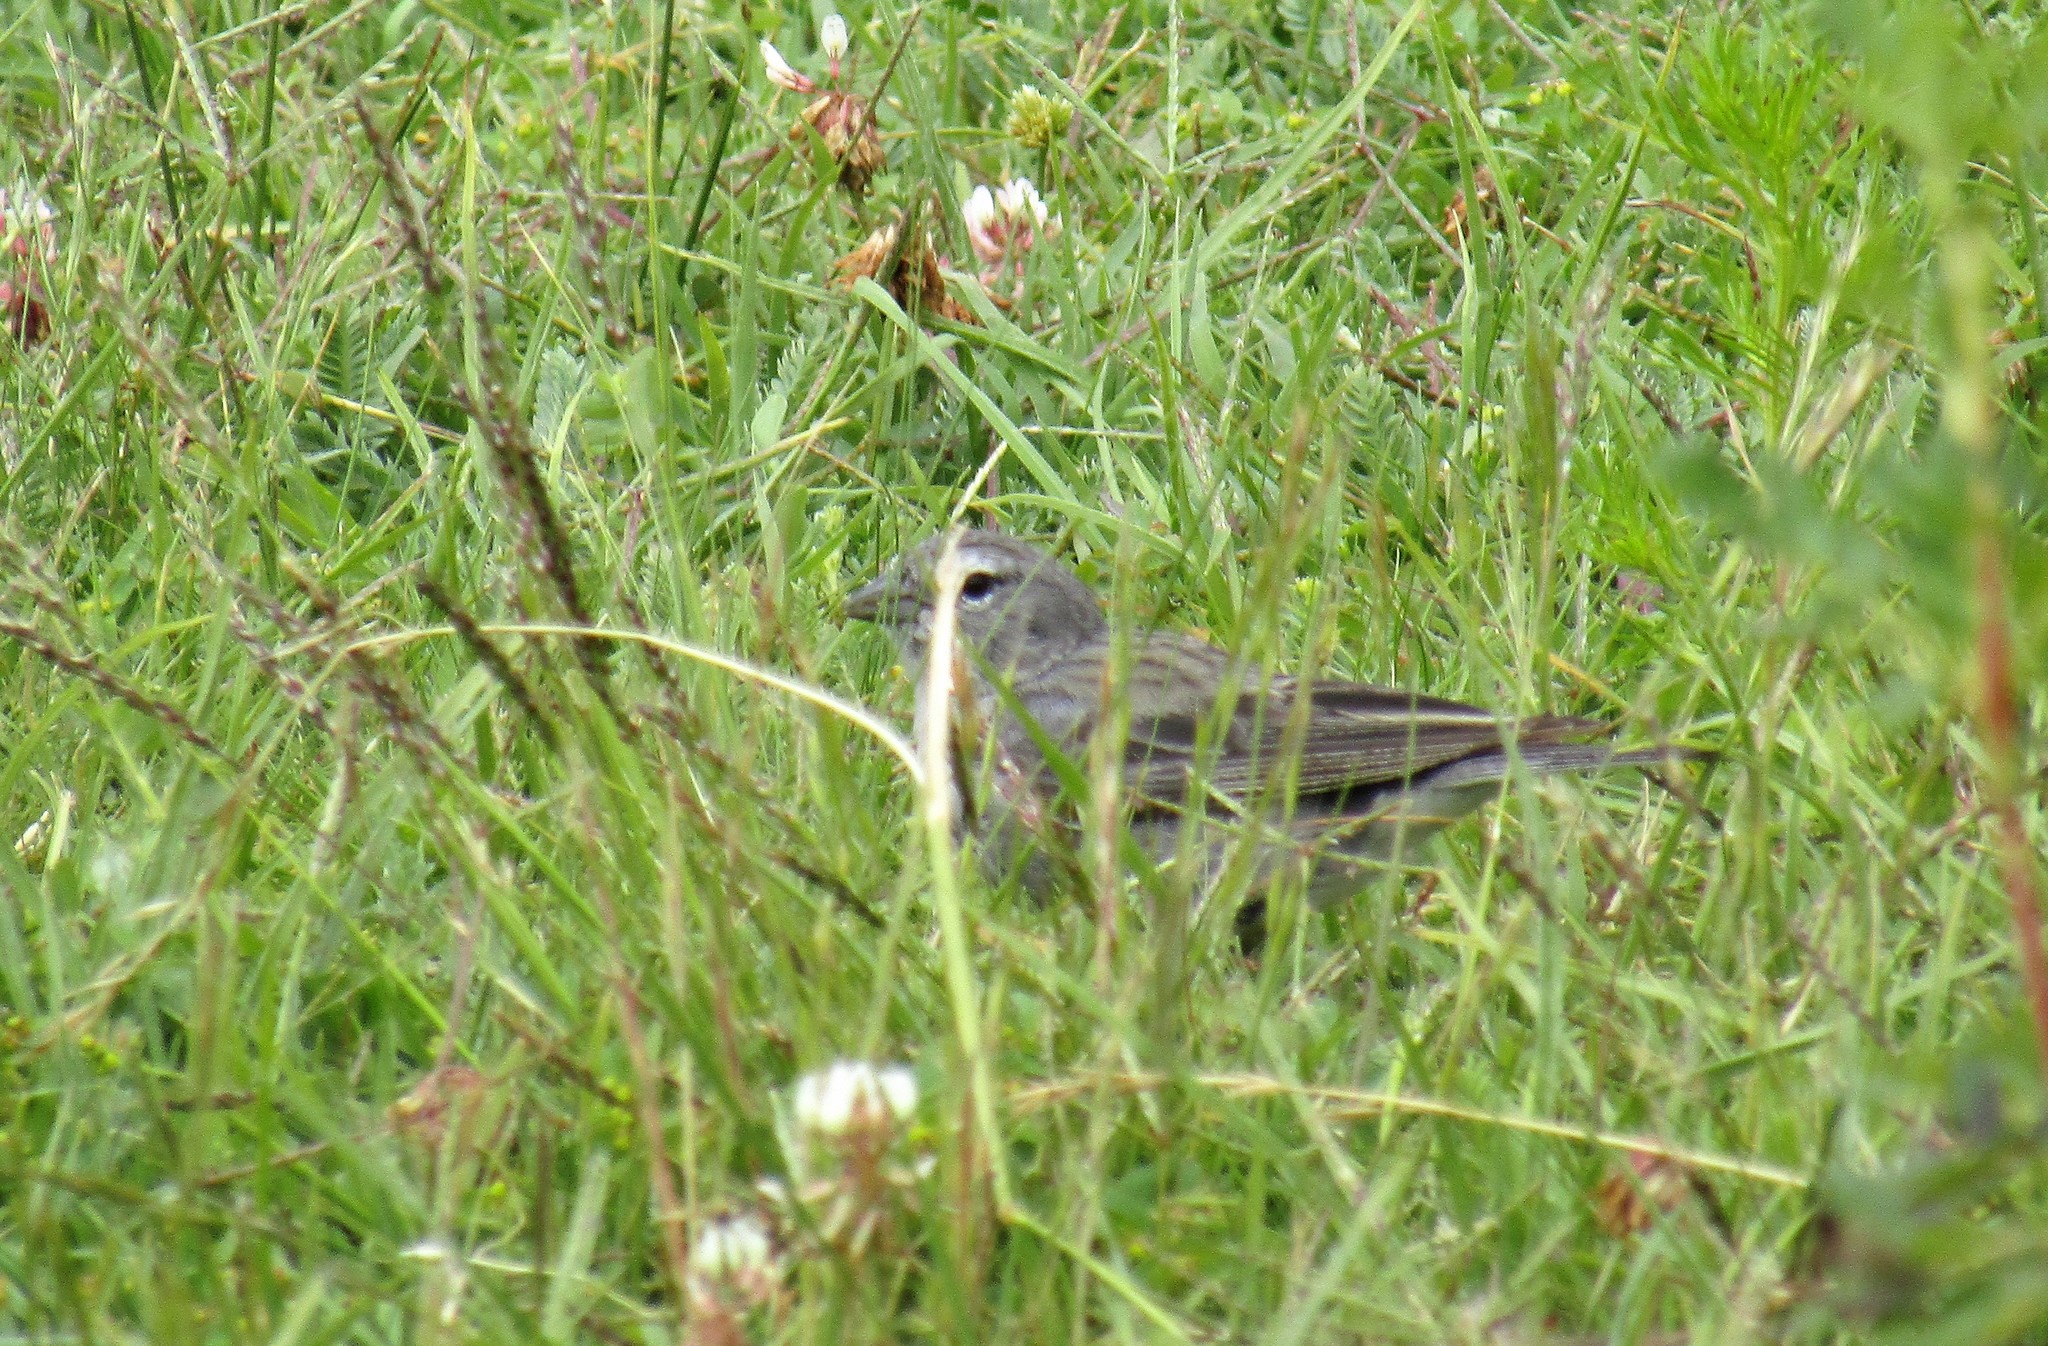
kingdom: Animalia
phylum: Chordata
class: Aves
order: Passeriformes
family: Thraupidae
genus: Geospizopsis
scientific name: Geospizopsis plebejus
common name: Ash-breasted sierra-finch
